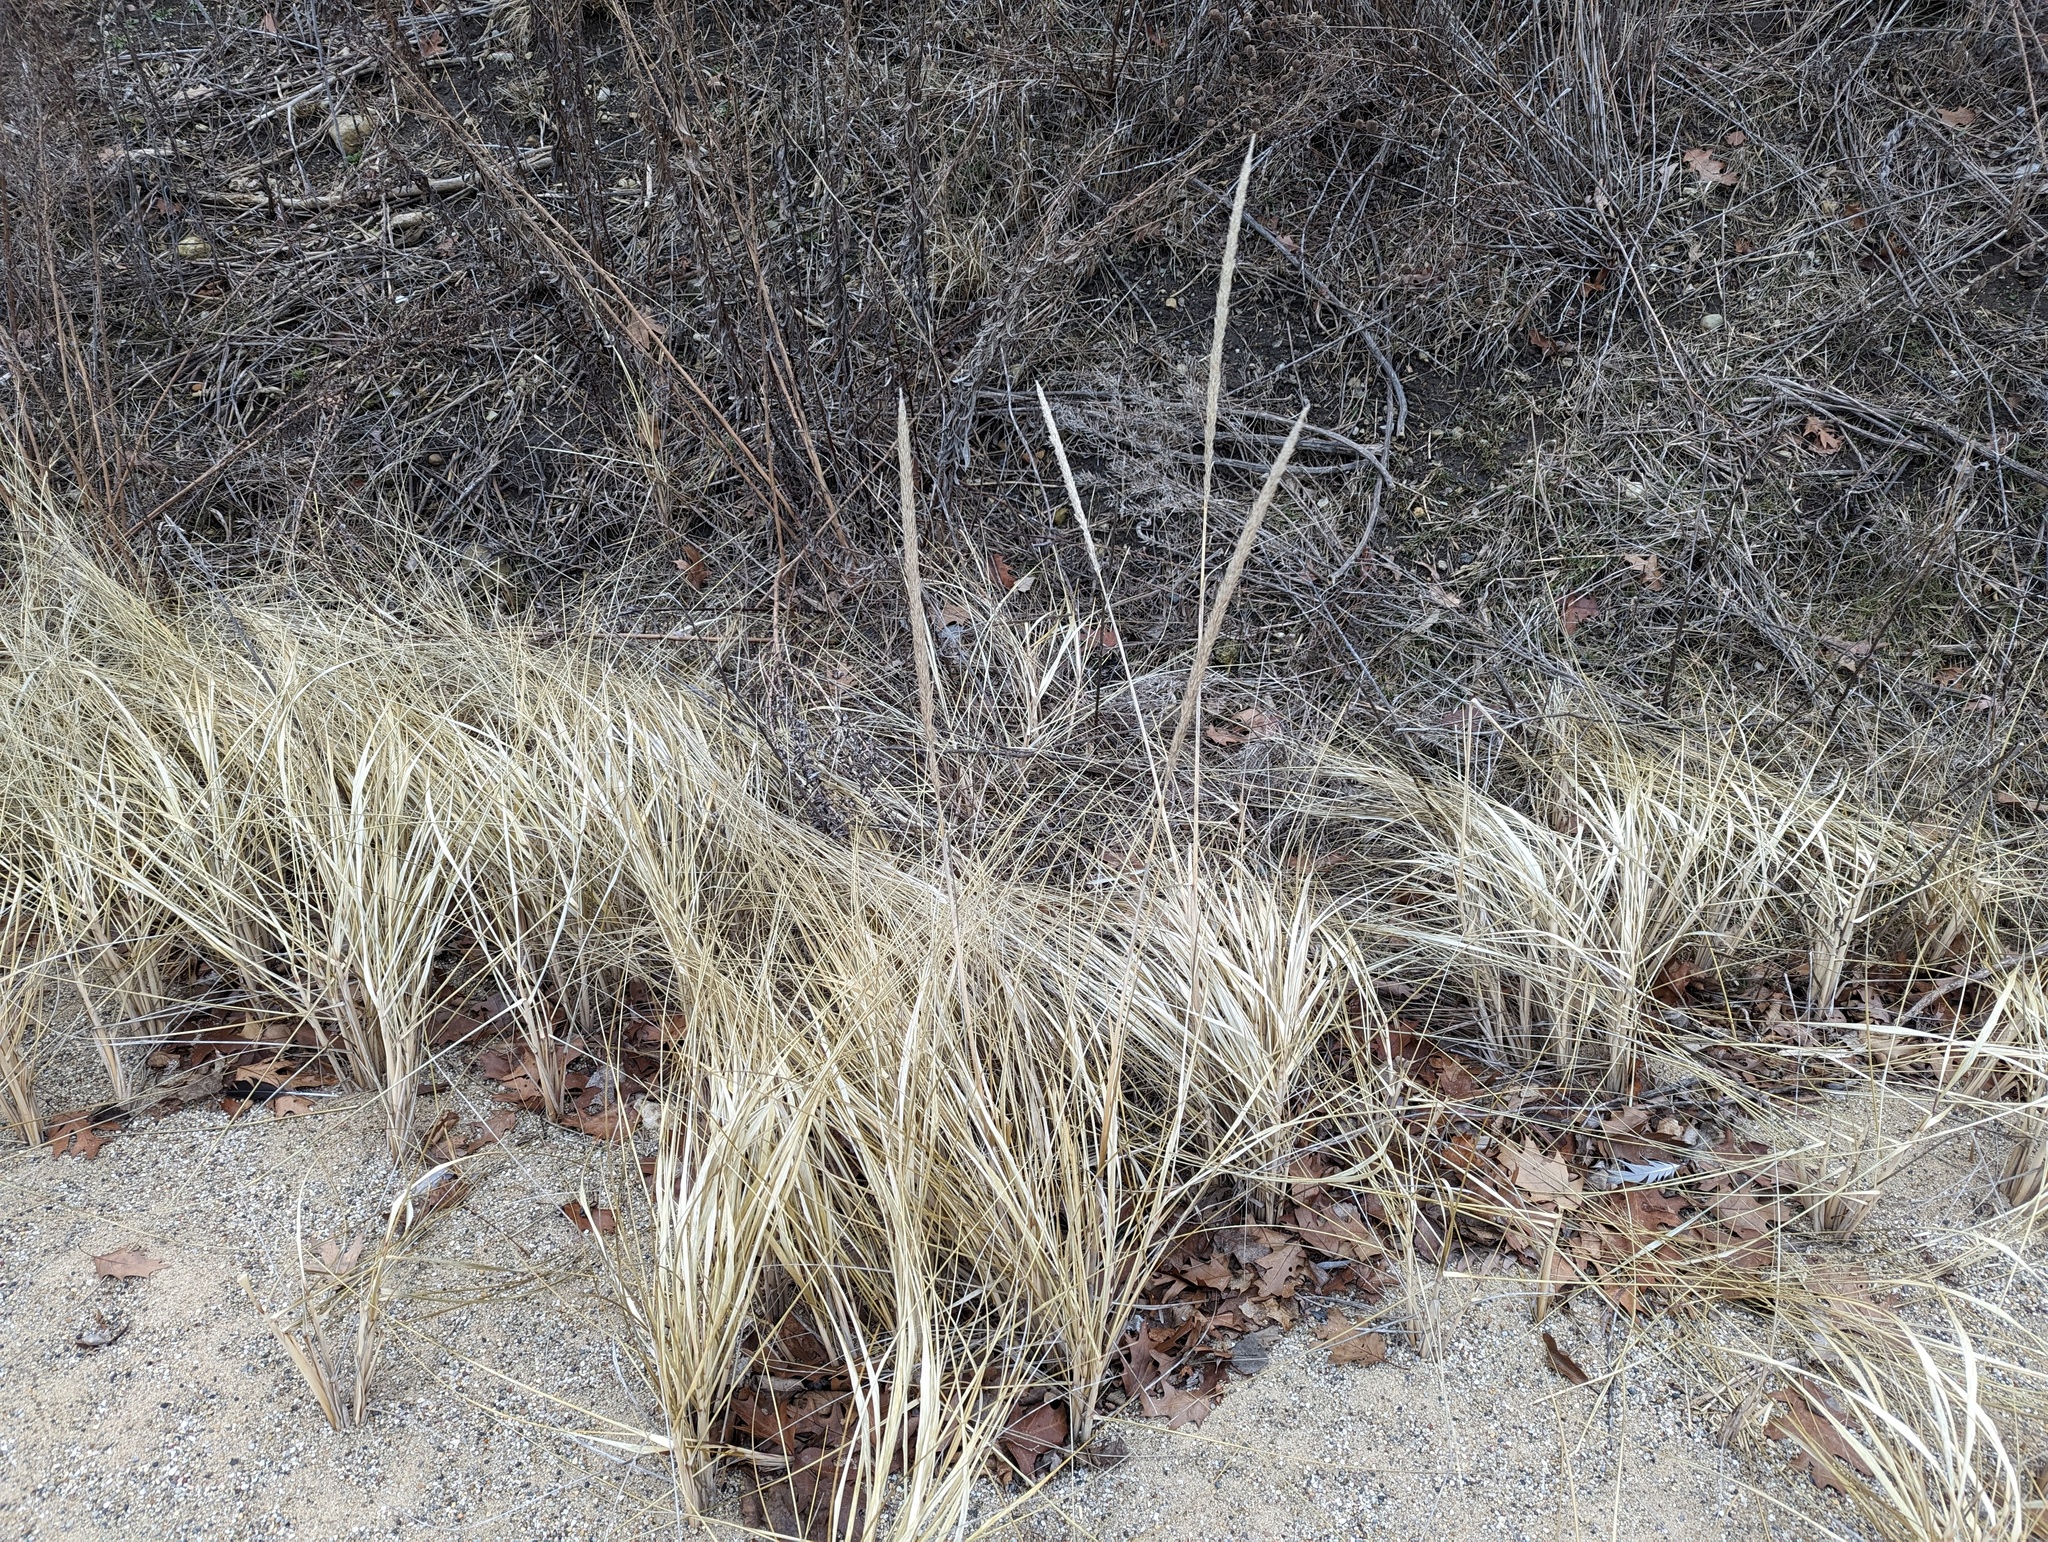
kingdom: Plantae
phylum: Tracheophyta
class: Liliopsida
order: Poales
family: Poaceae
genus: Calamagrostis
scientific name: Calamagrostis breviligulata
